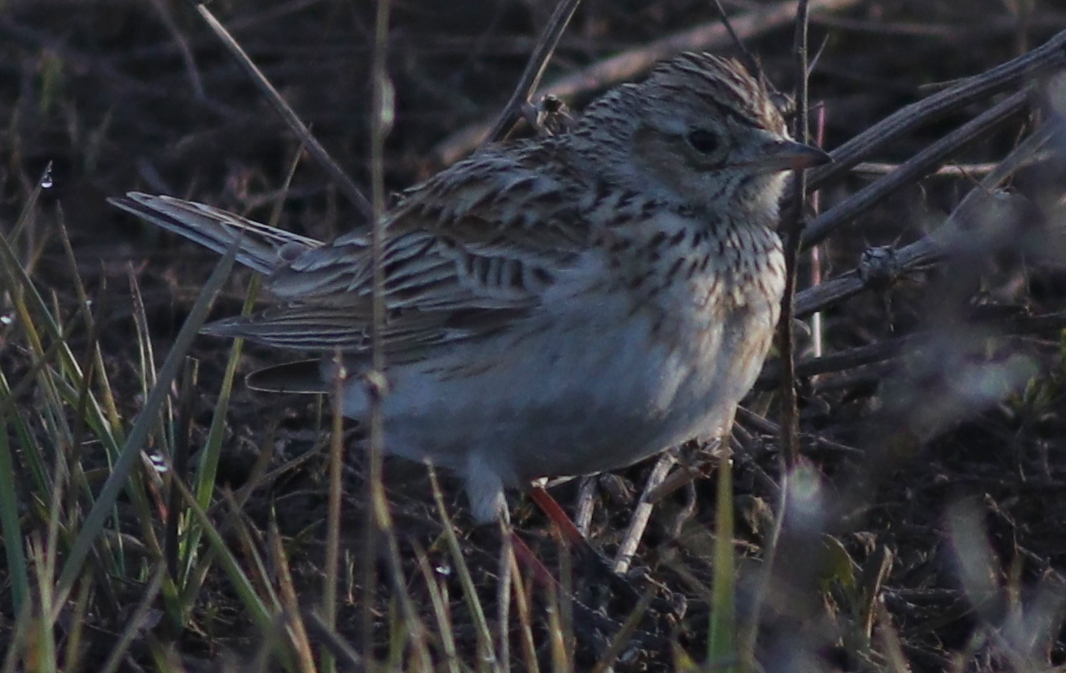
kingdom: Animalia
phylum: Chordata
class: Aves
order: Passeriformes
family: Alaudidae
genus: Alauda
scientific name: Alauda arvensis
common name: Eurasian skylark
